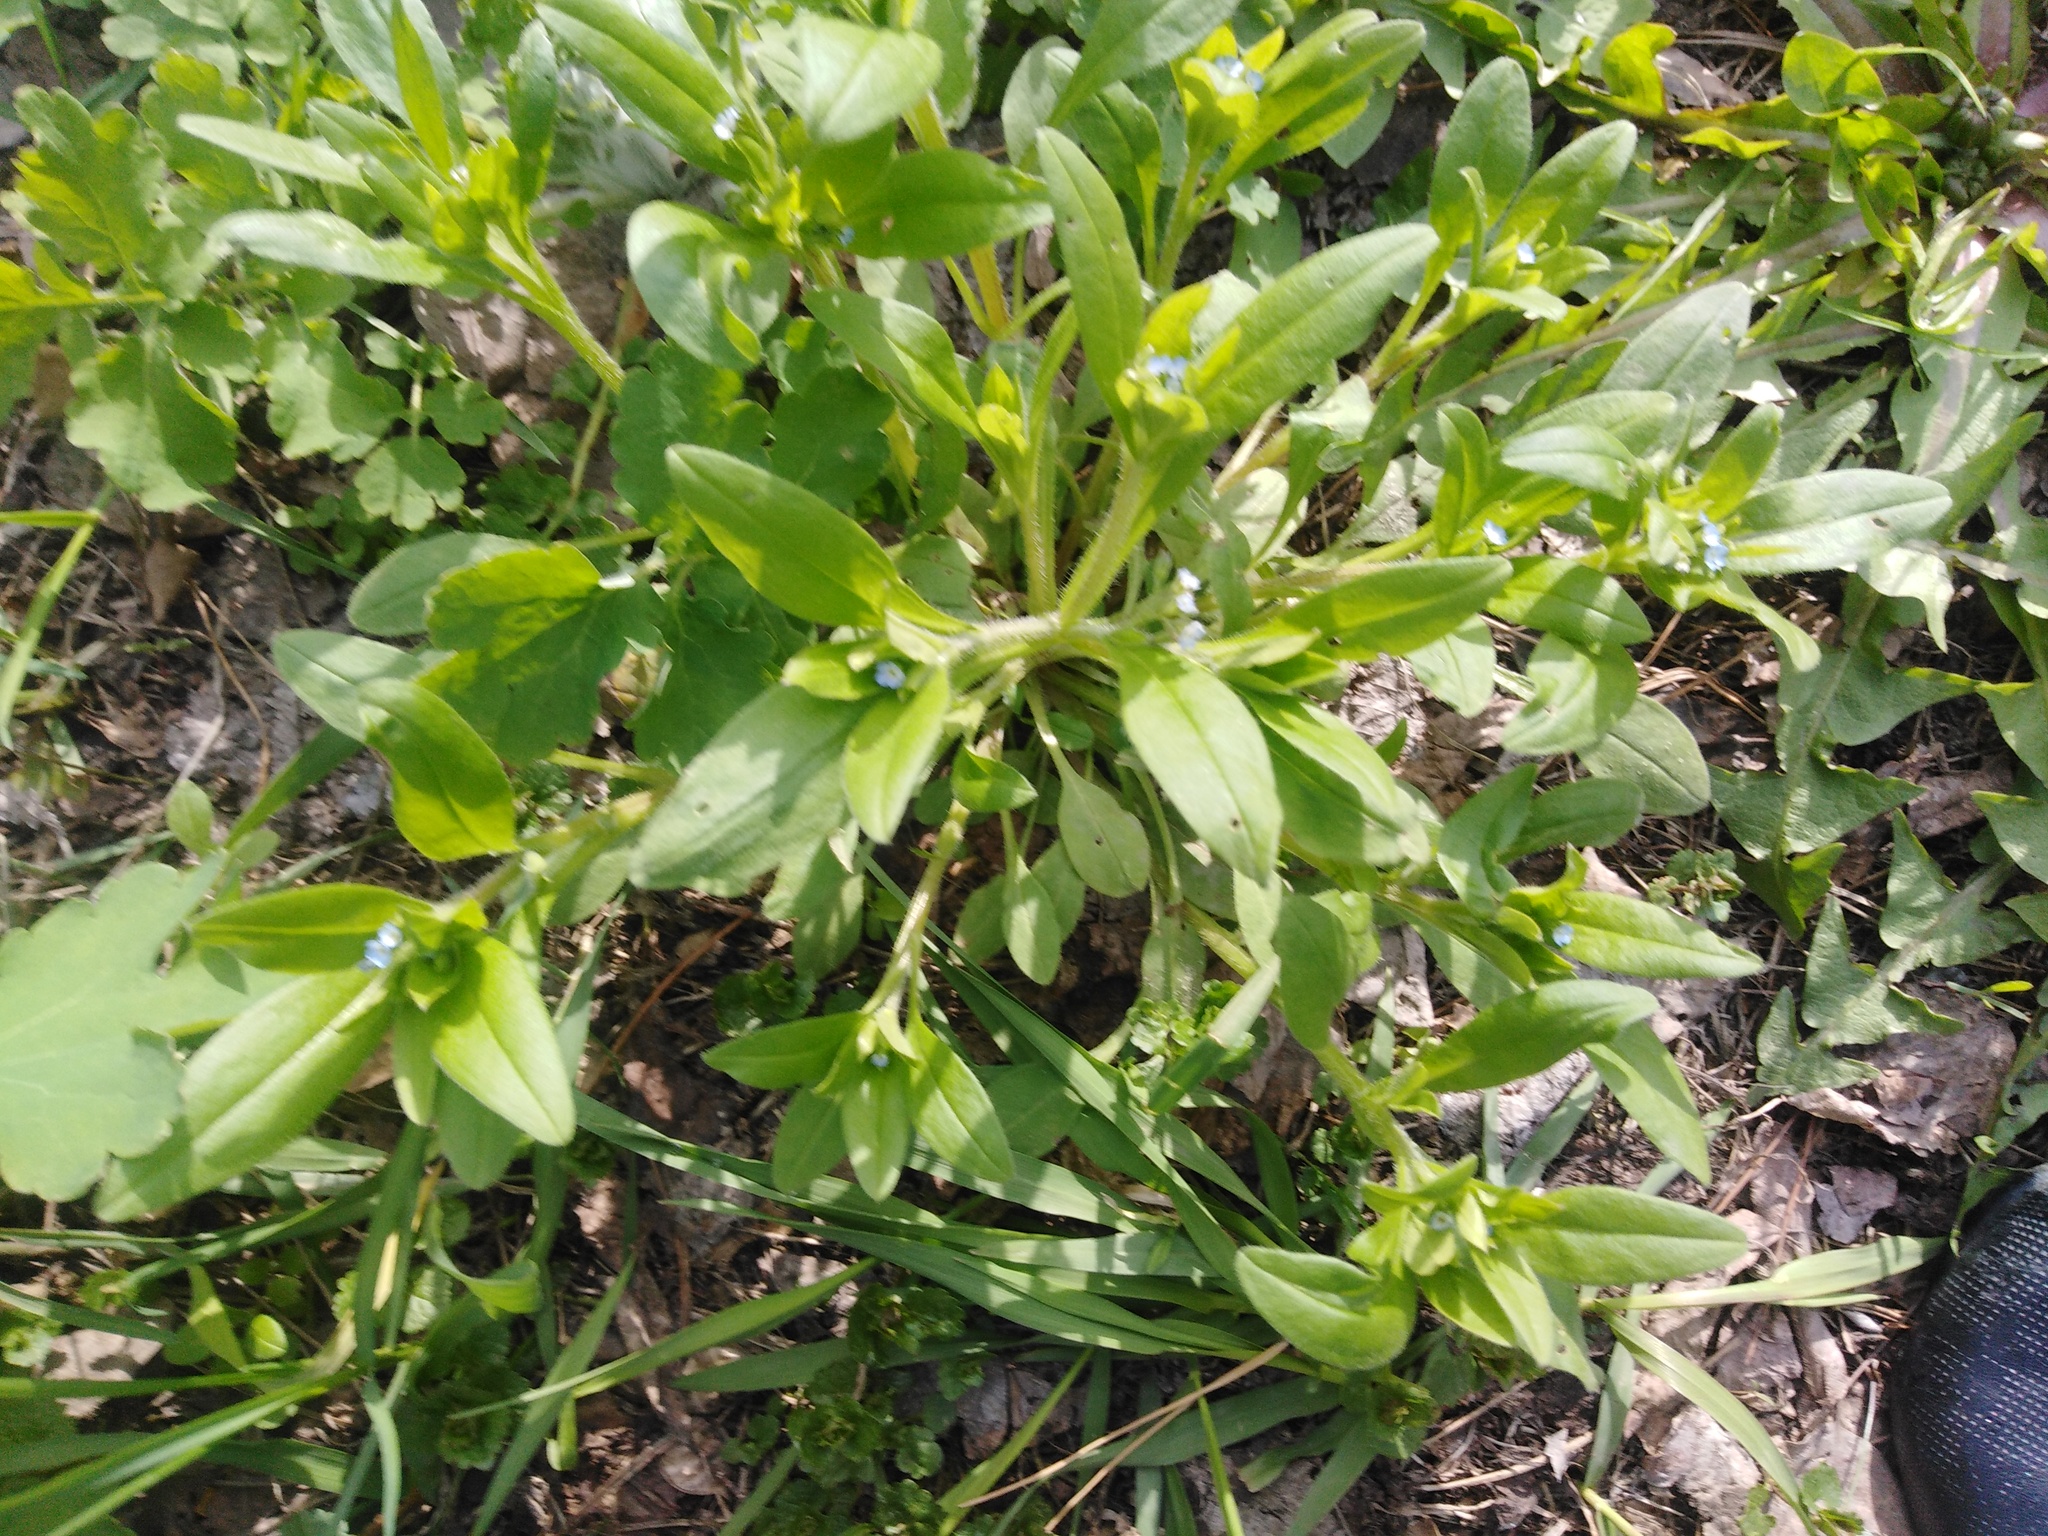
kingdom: Plantae
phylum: Tracheophyta
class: Magnoliopsida
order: Boraginales
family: Boraginaceae
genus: Myosotis
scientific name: Myosotis sparsiflora
